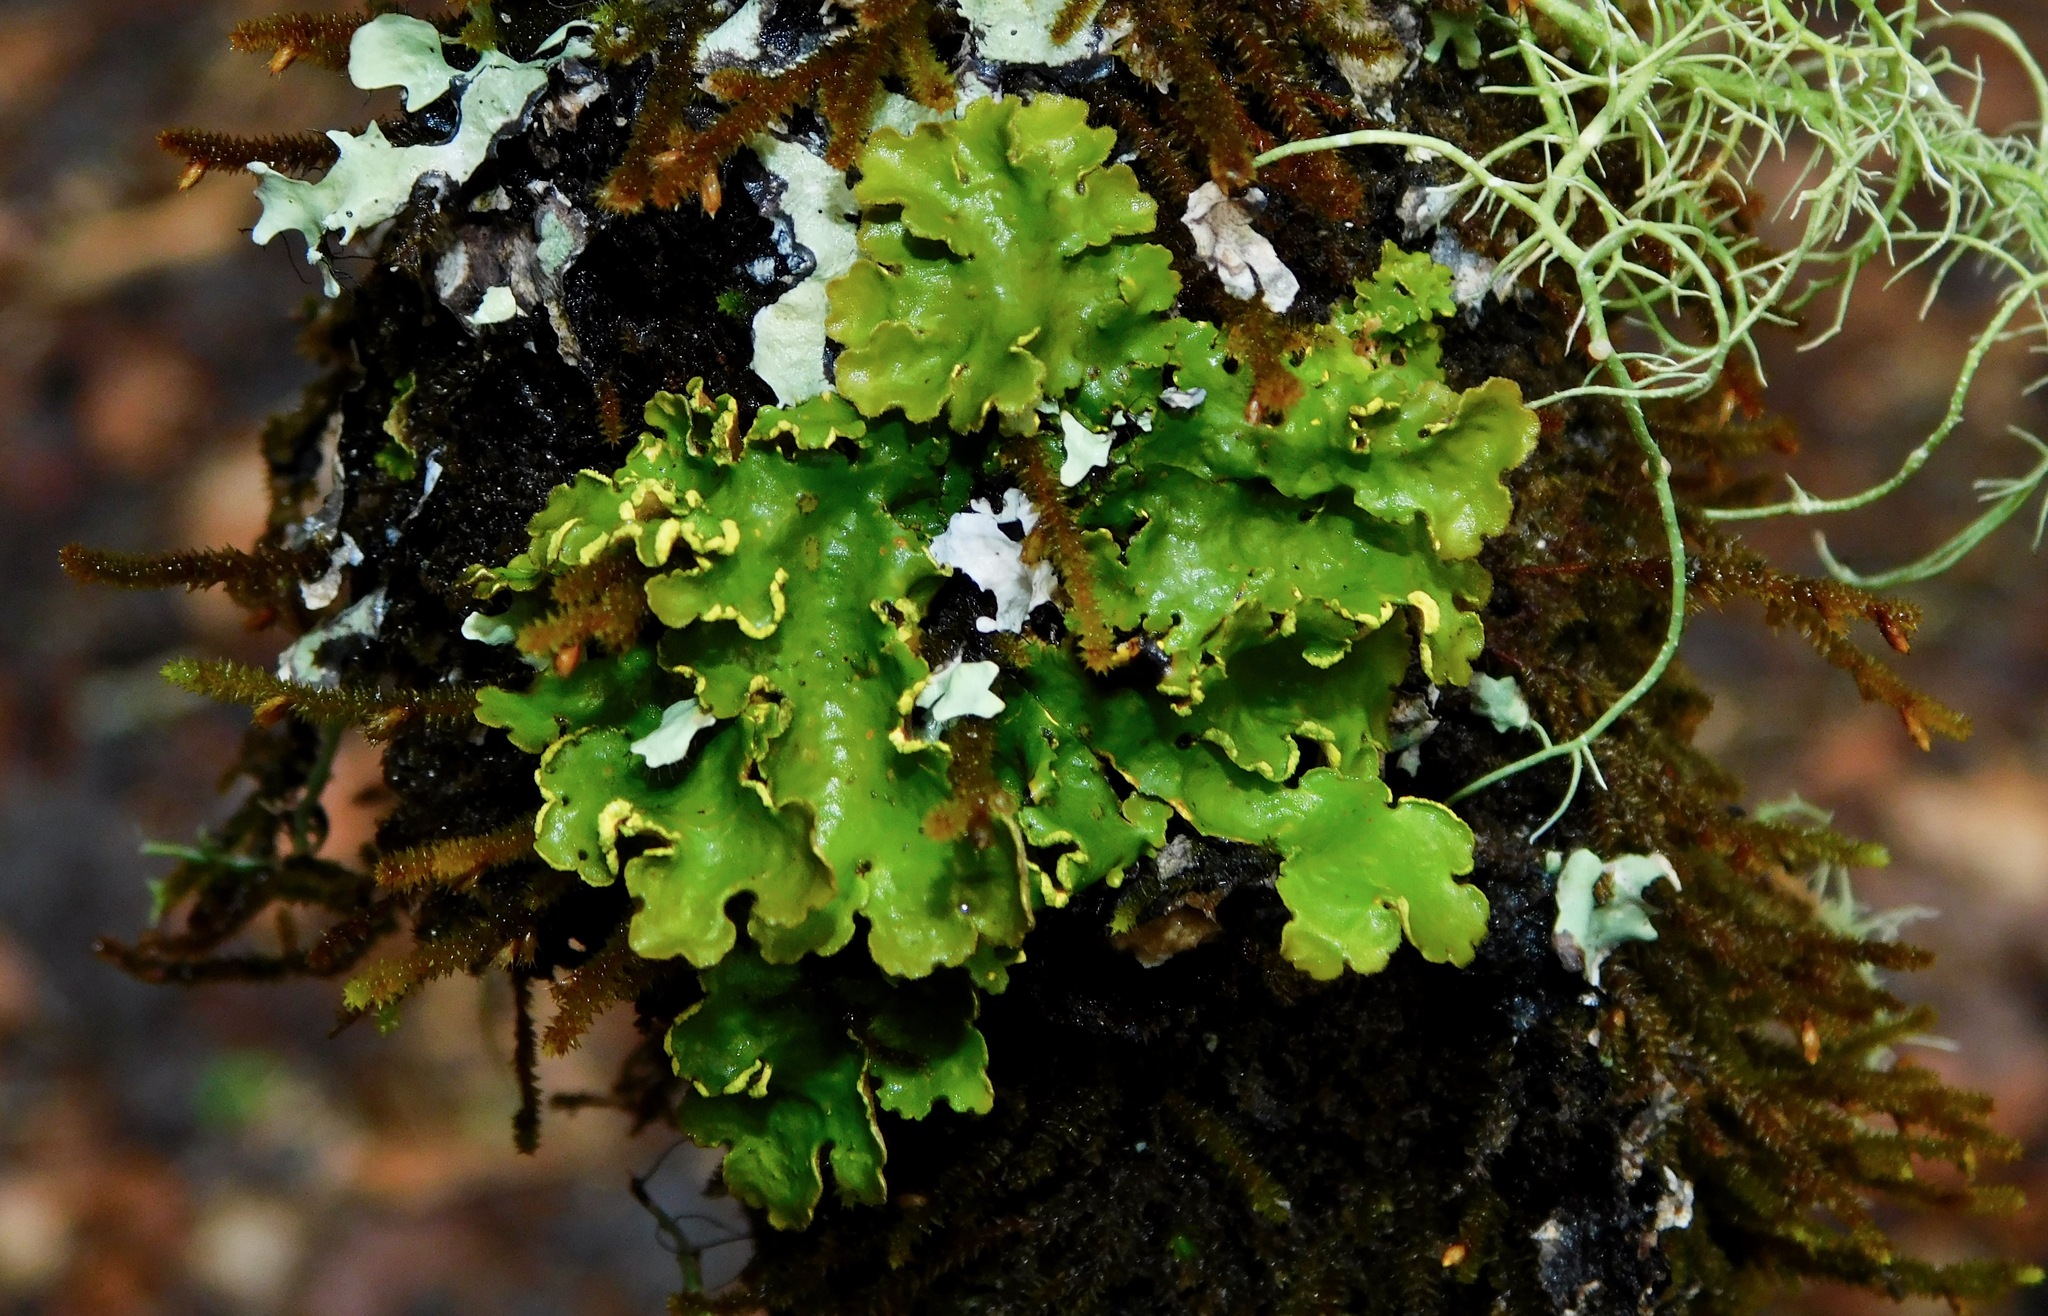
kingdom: Fungi
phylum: Ascomycota
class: Lecanoromycetes
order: Peltigerales
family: Lobariaceae
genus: Pseudocyphellaria
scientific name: Pseudocyphellaria aurata
